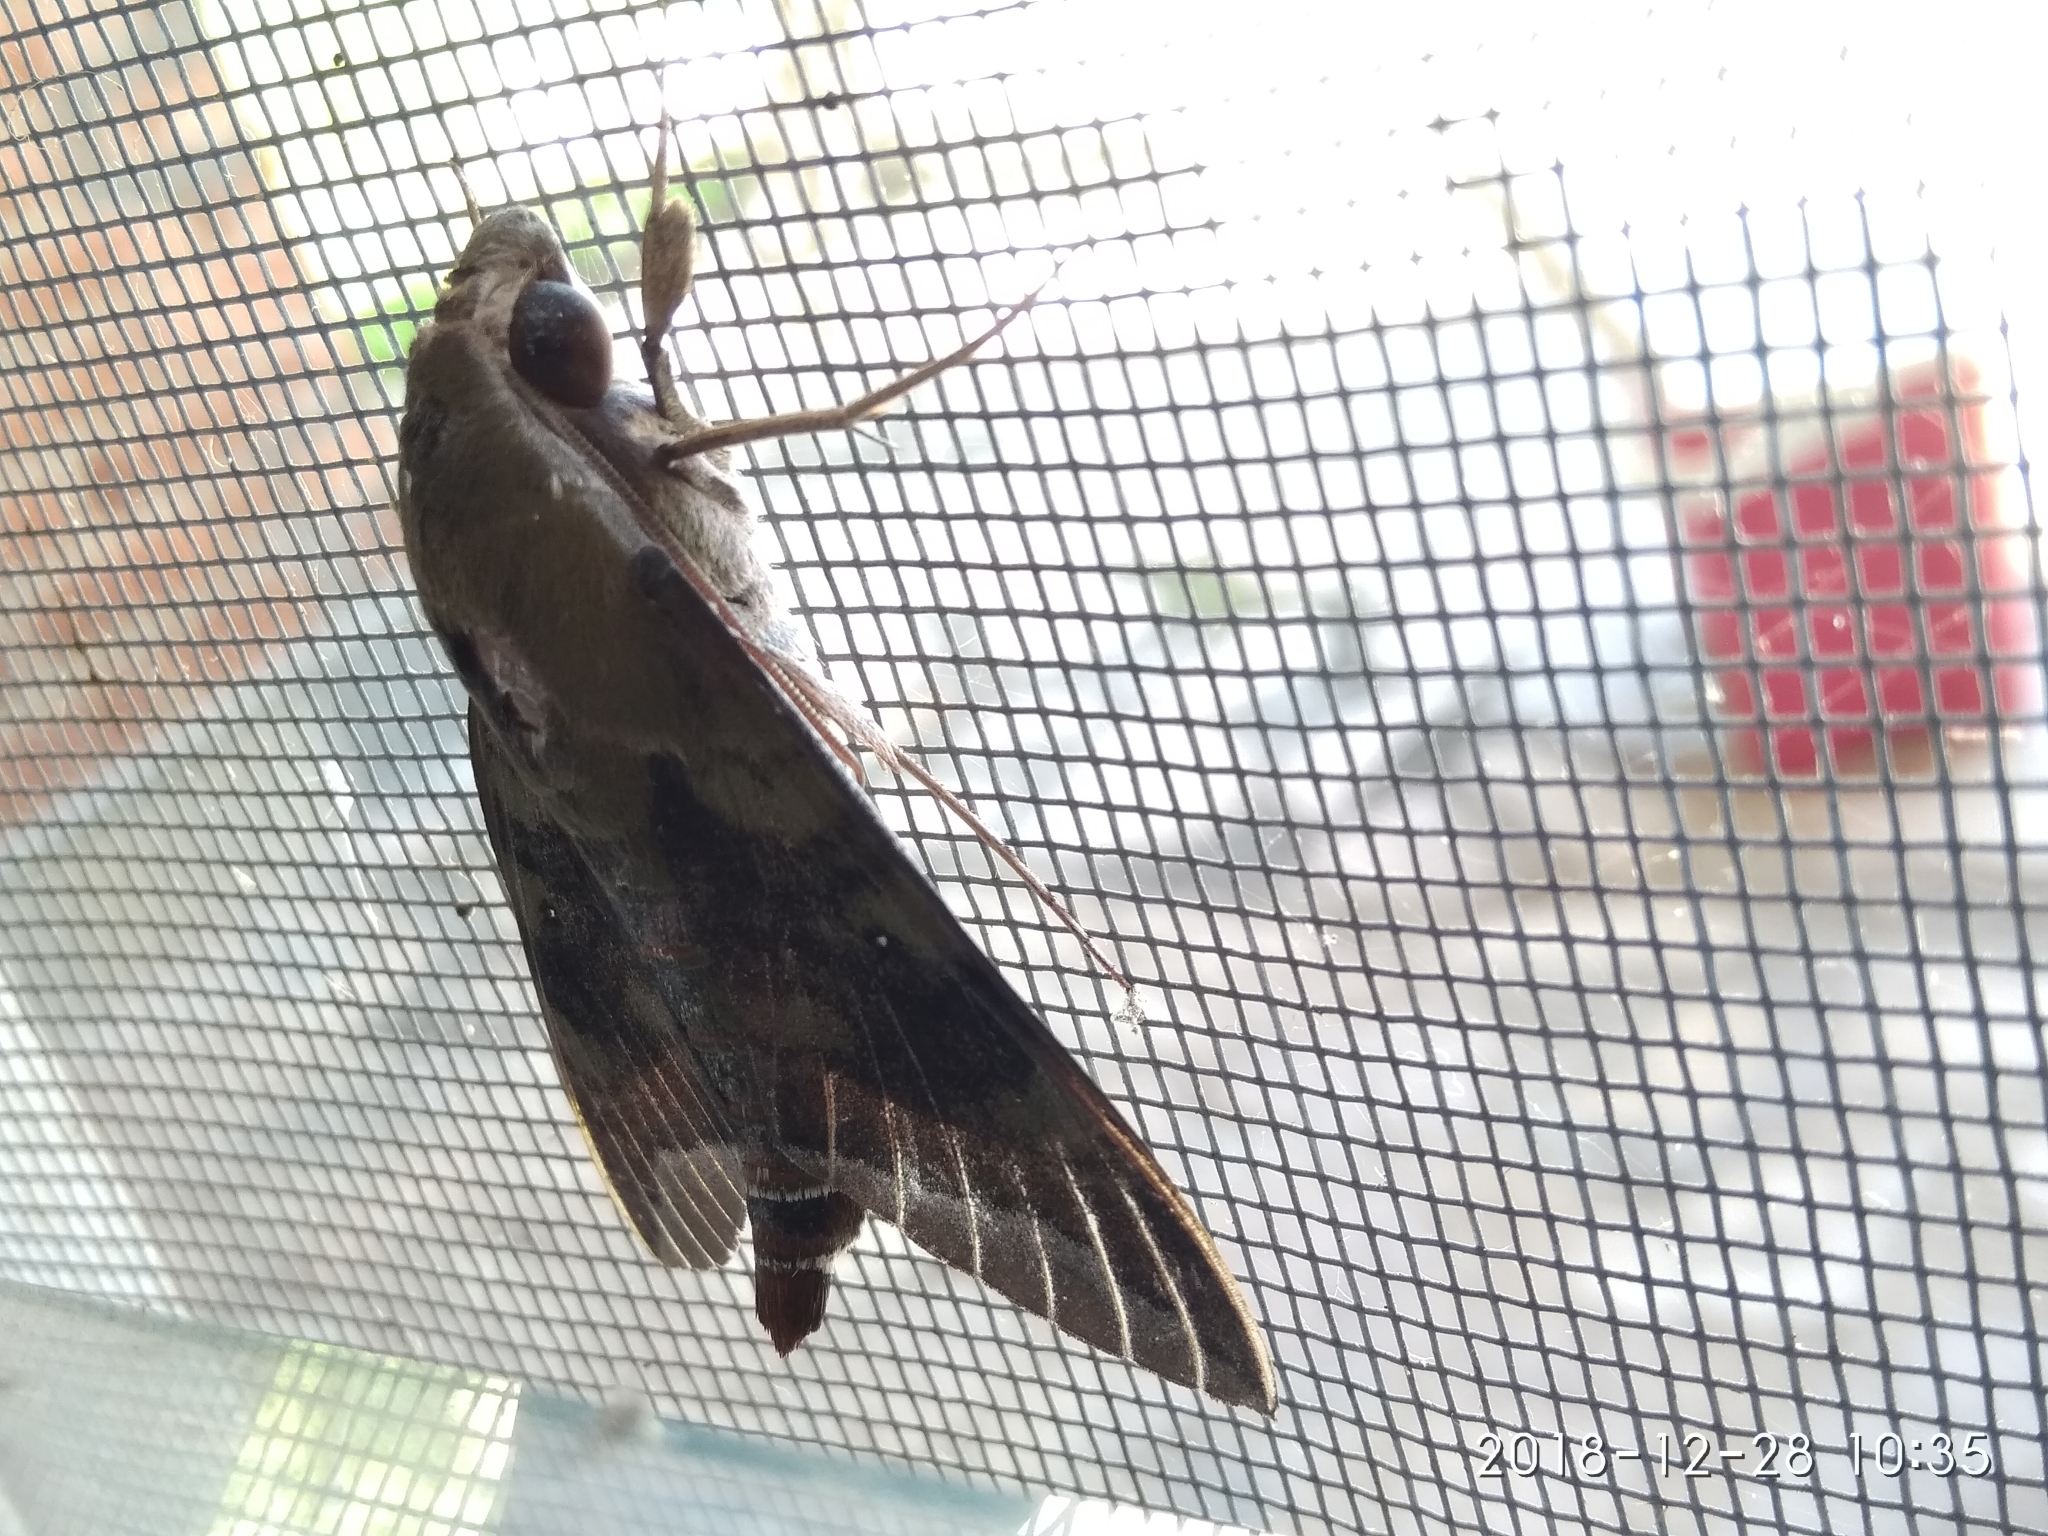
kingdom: Animalia
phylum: Arthropoda
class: Insecta
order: Lepidoptera
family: Sphingidae
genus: Nephele
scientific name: Nephele comma
